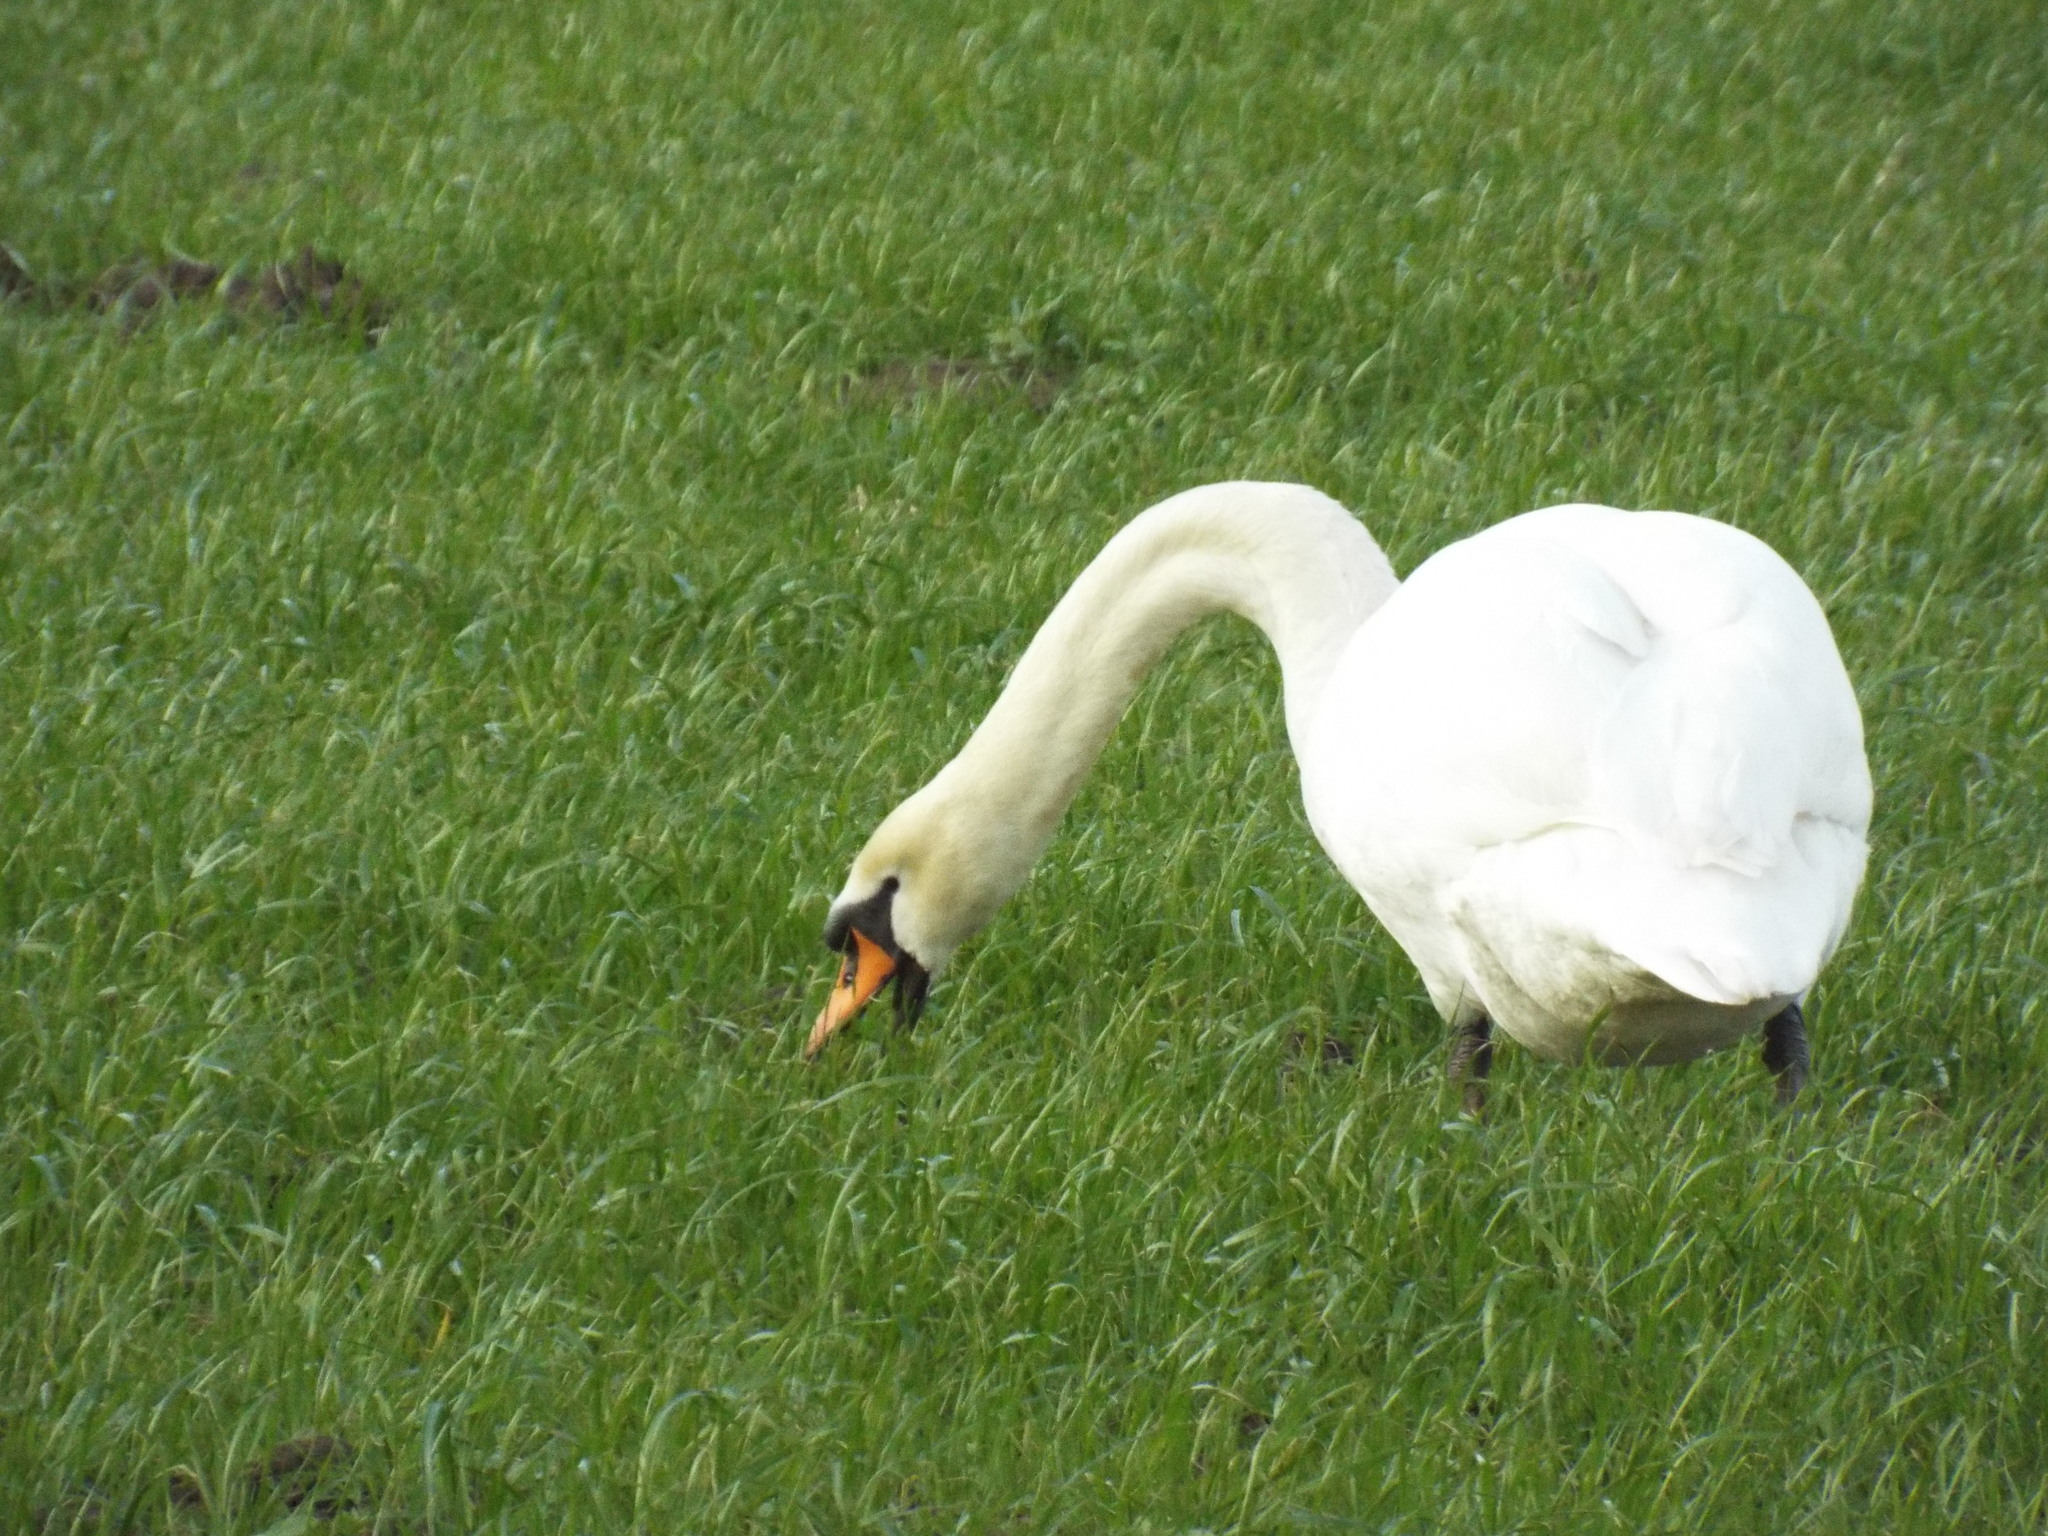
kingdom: Animalia
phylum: Chordata
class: Aves
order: Anseriformes
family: Anatidae
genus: Cygnus
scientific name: Cygnus olor
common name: Mute swan
